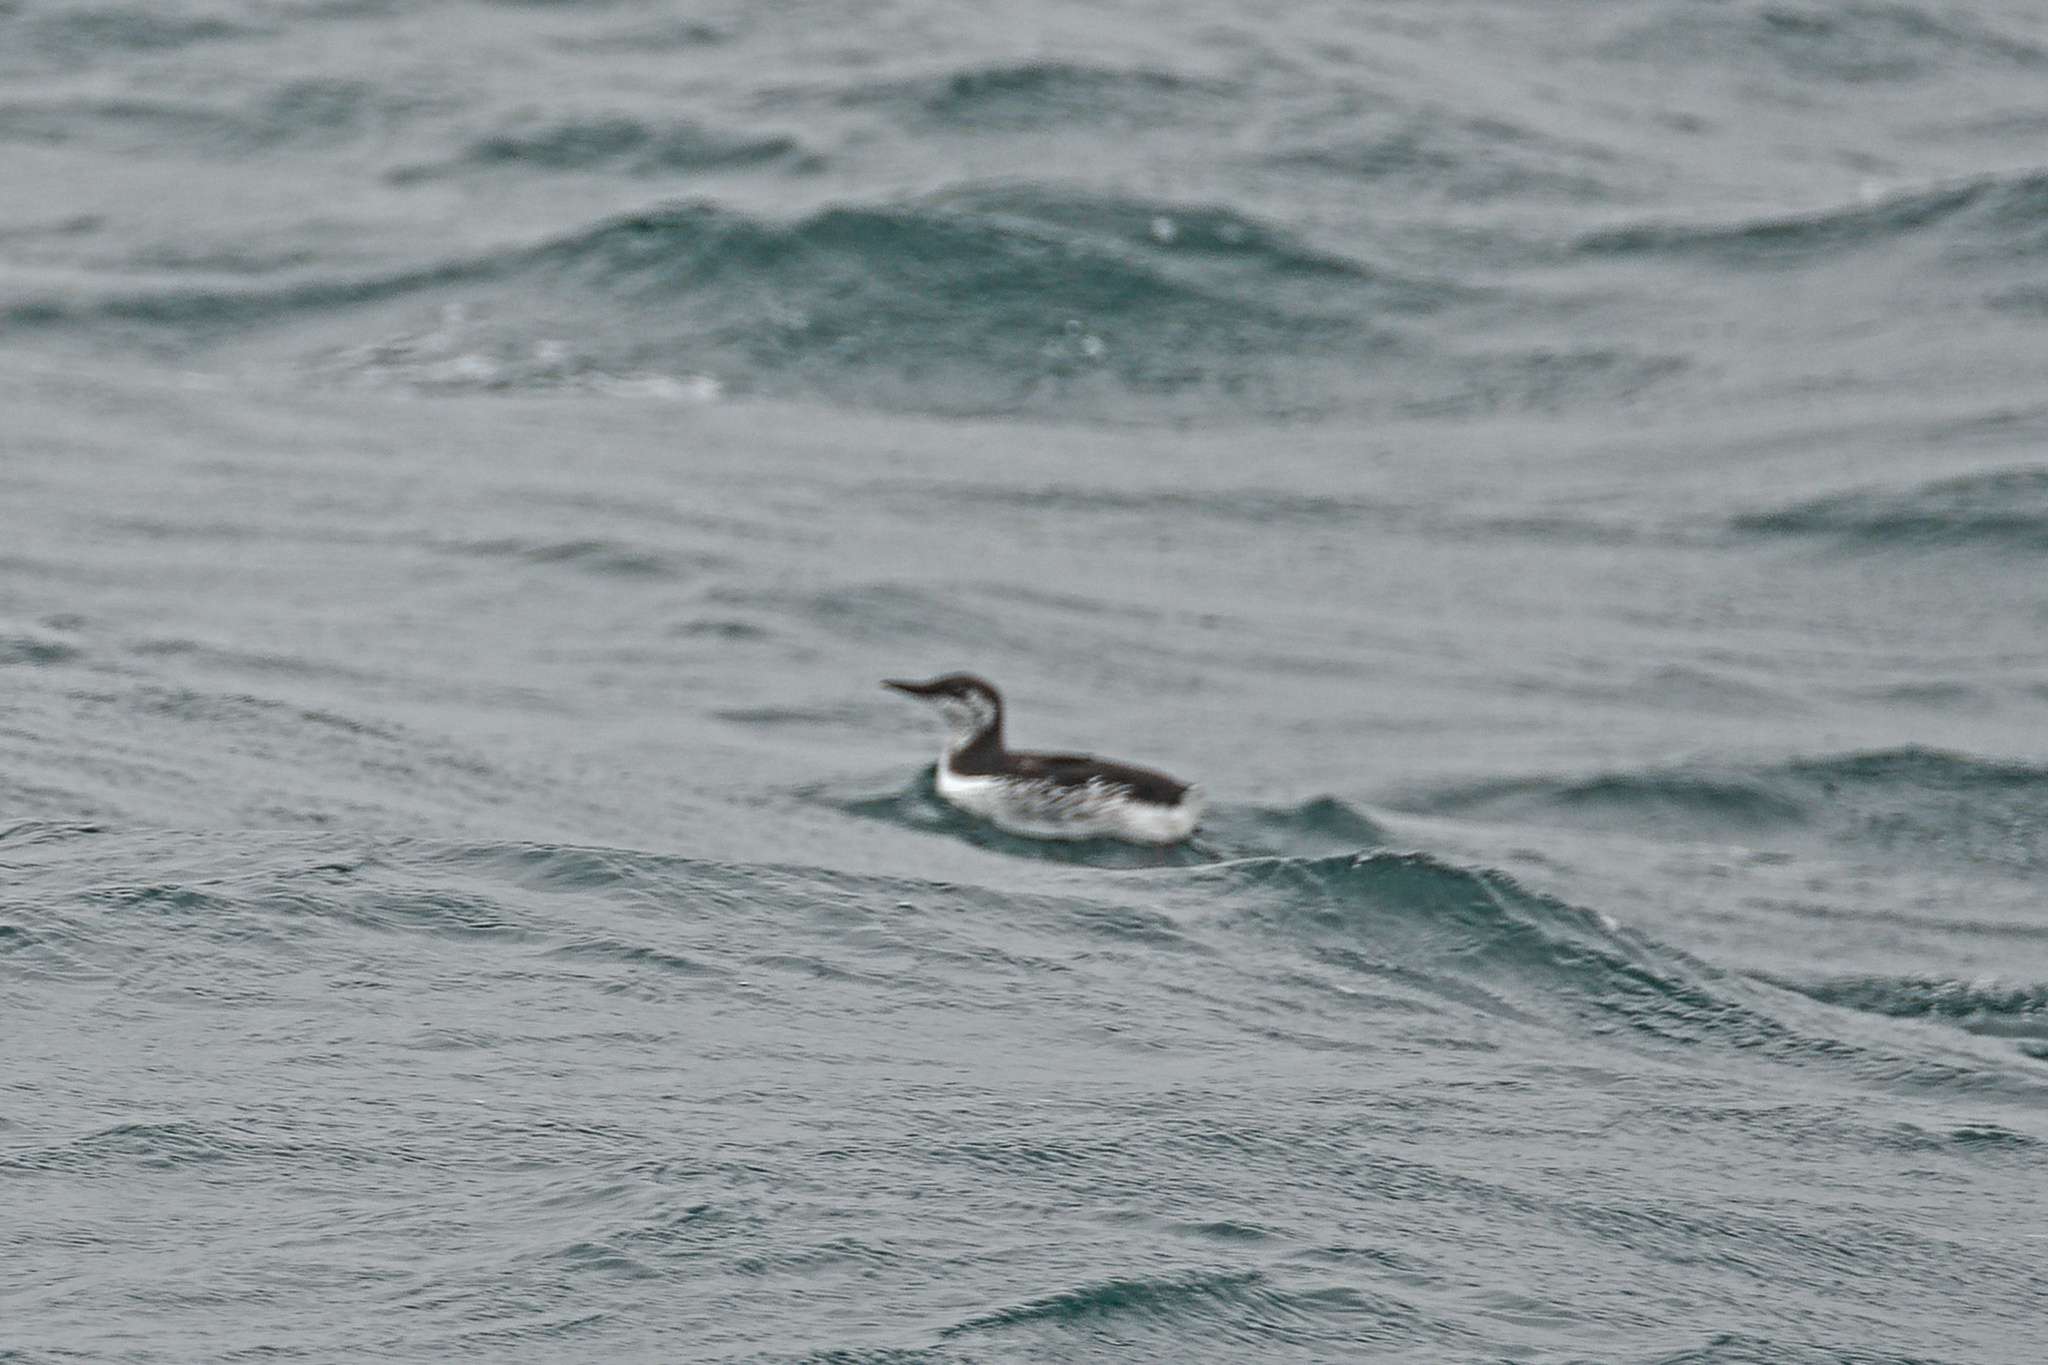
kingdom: Animalia
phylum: Chordata
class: Aves
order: Charadriiformes
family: Alcidae
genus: Uria
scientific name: Uria aalge
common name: Common murre
